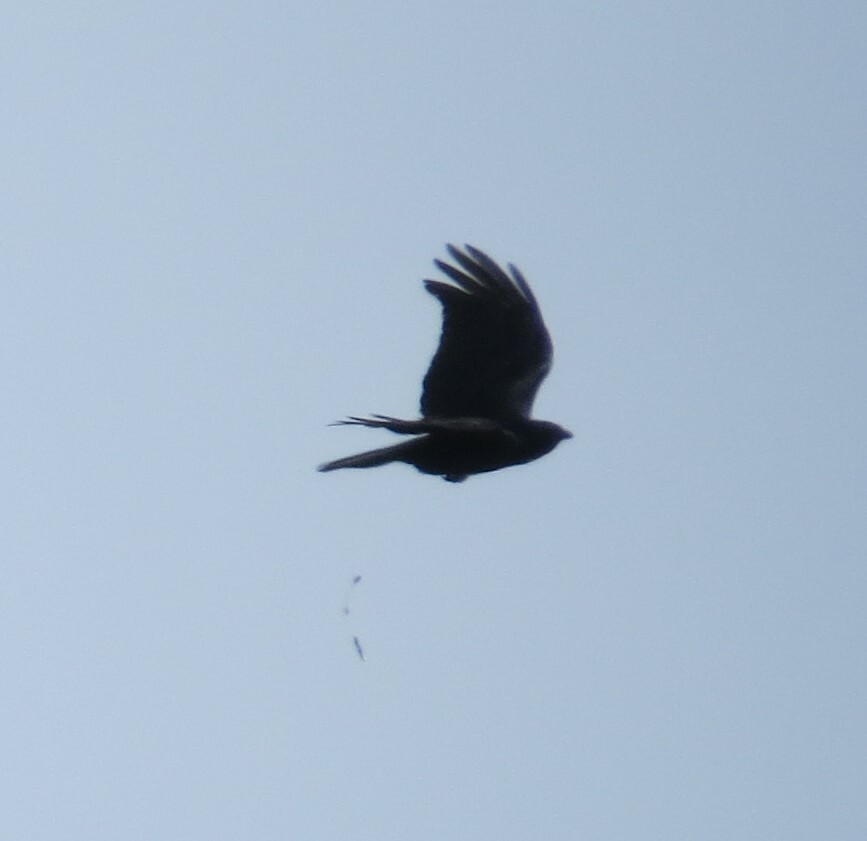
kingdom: Animalia
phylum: Chordata
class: Aves
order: Passeriformes
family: Corvidae
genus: Corvus
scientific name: Corvus brachyrhynchos
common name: American crow
